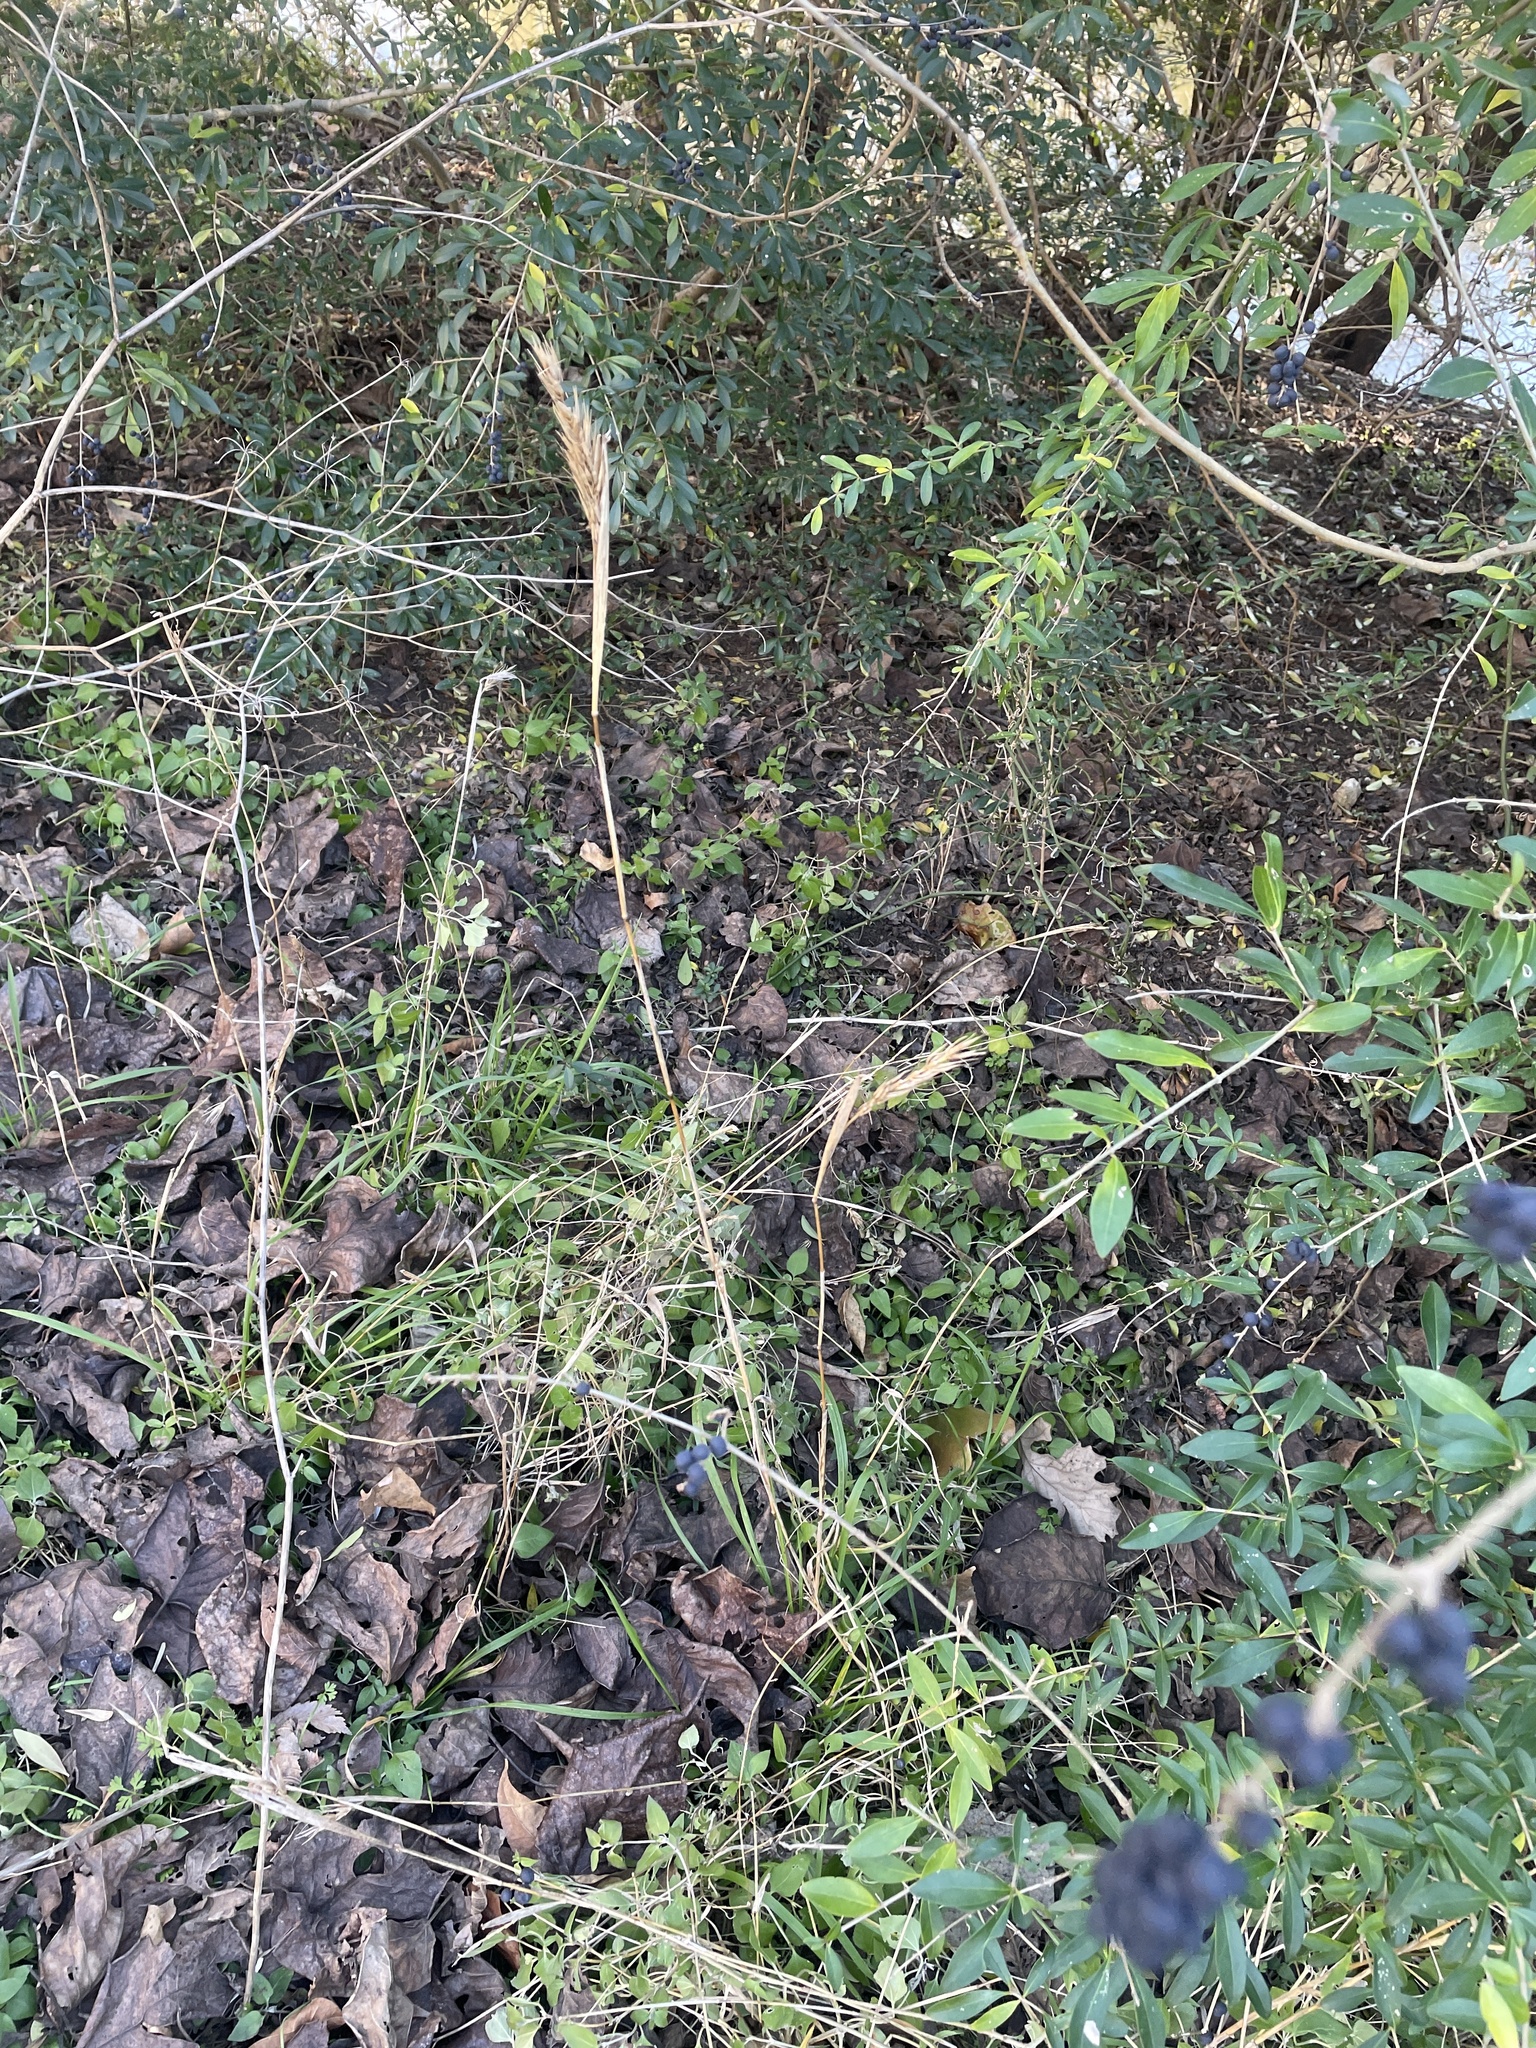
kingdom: Plantae
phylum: Tracheophyta
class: Liliopsida
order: Poales
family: Poaceae
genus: Elymus
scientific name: Elymus virginicus
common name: Common eastern wildrye
